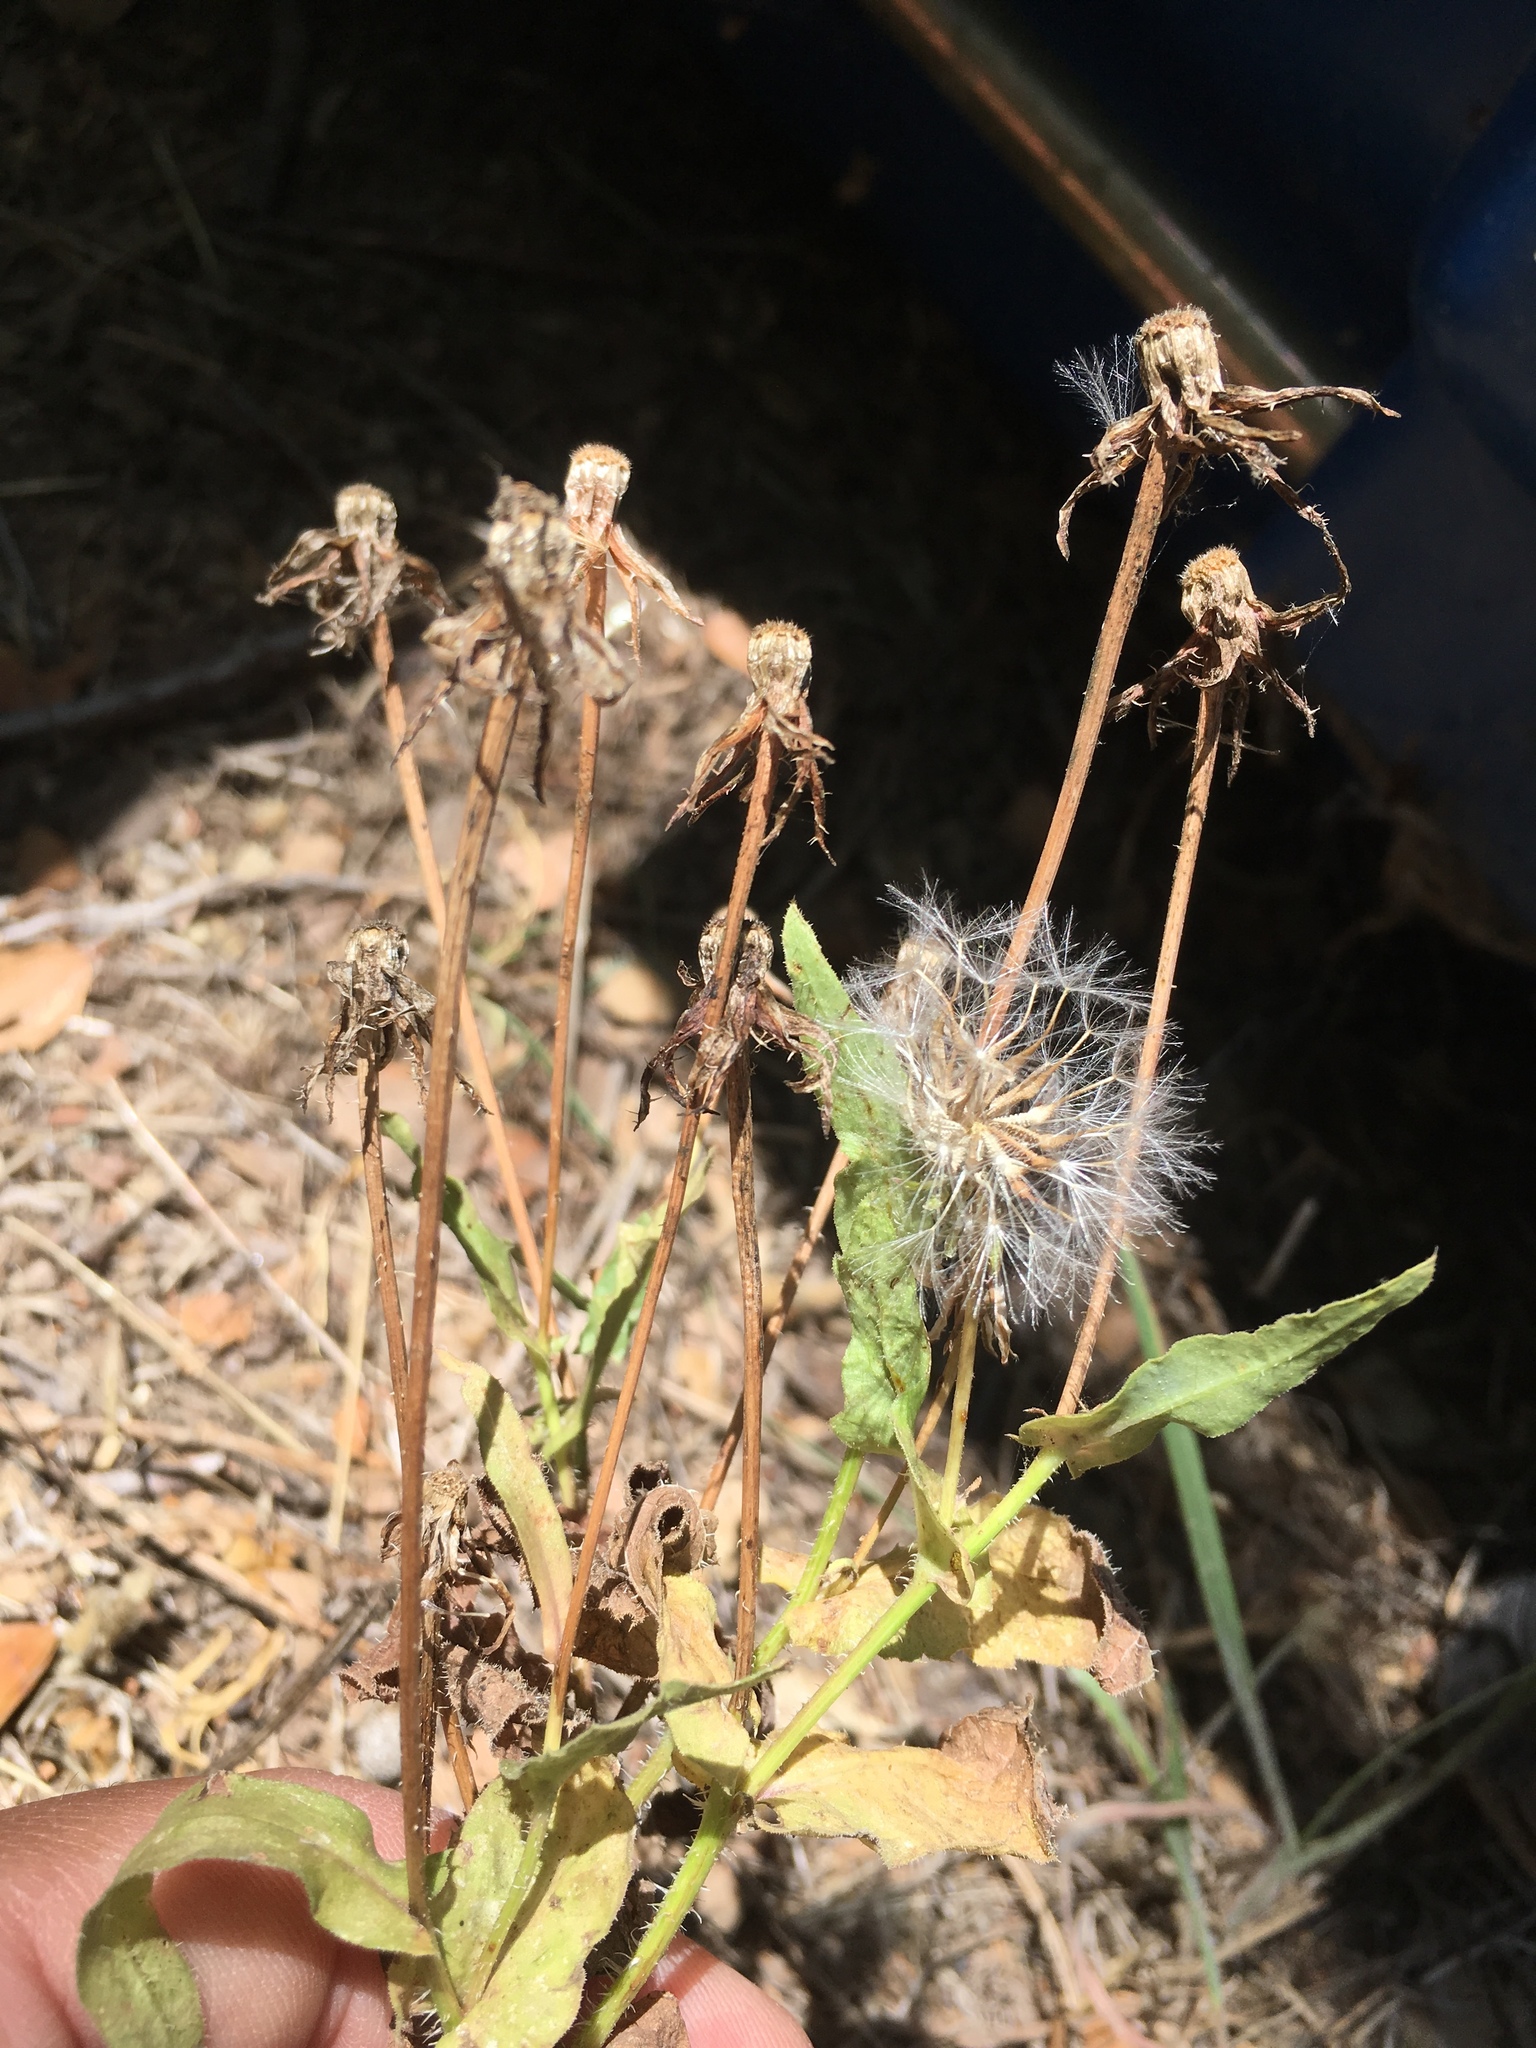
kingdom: Plantae
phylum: Tracheophyta
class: Magnoliopsida
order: Asterales
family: Asteraceae
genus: Urospermum
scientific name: Urospermum picroides
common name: False hawkbit
